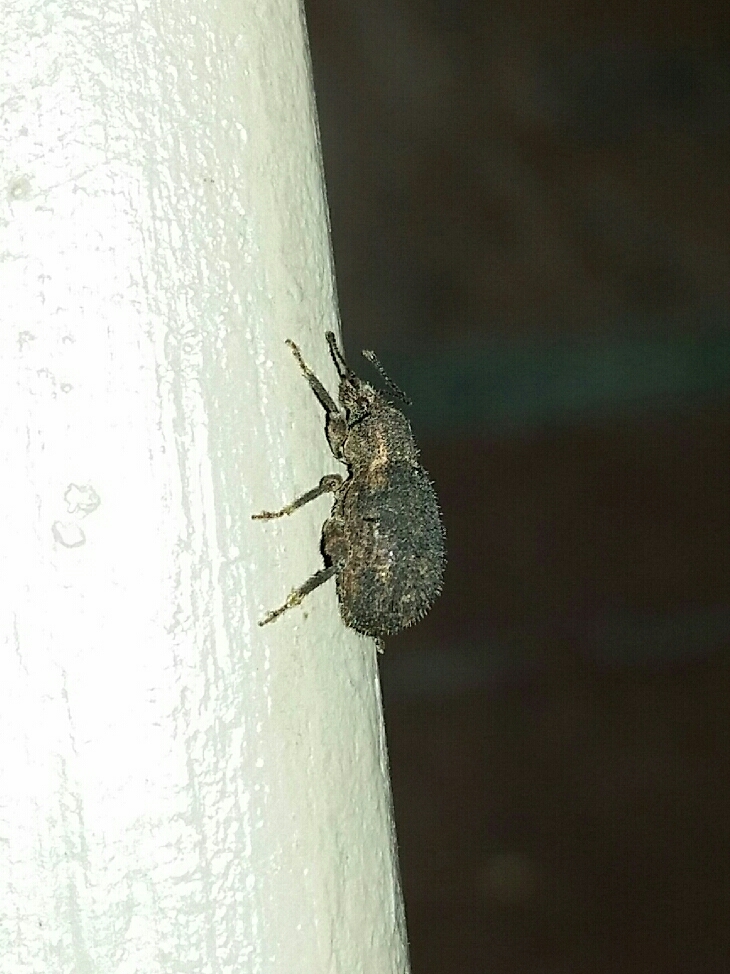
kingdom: Animalia
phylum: Arthropoda
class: Insecta
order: Coleoptera
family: Curculionidae
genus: Nemocestes
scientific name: Nemocestes horni
